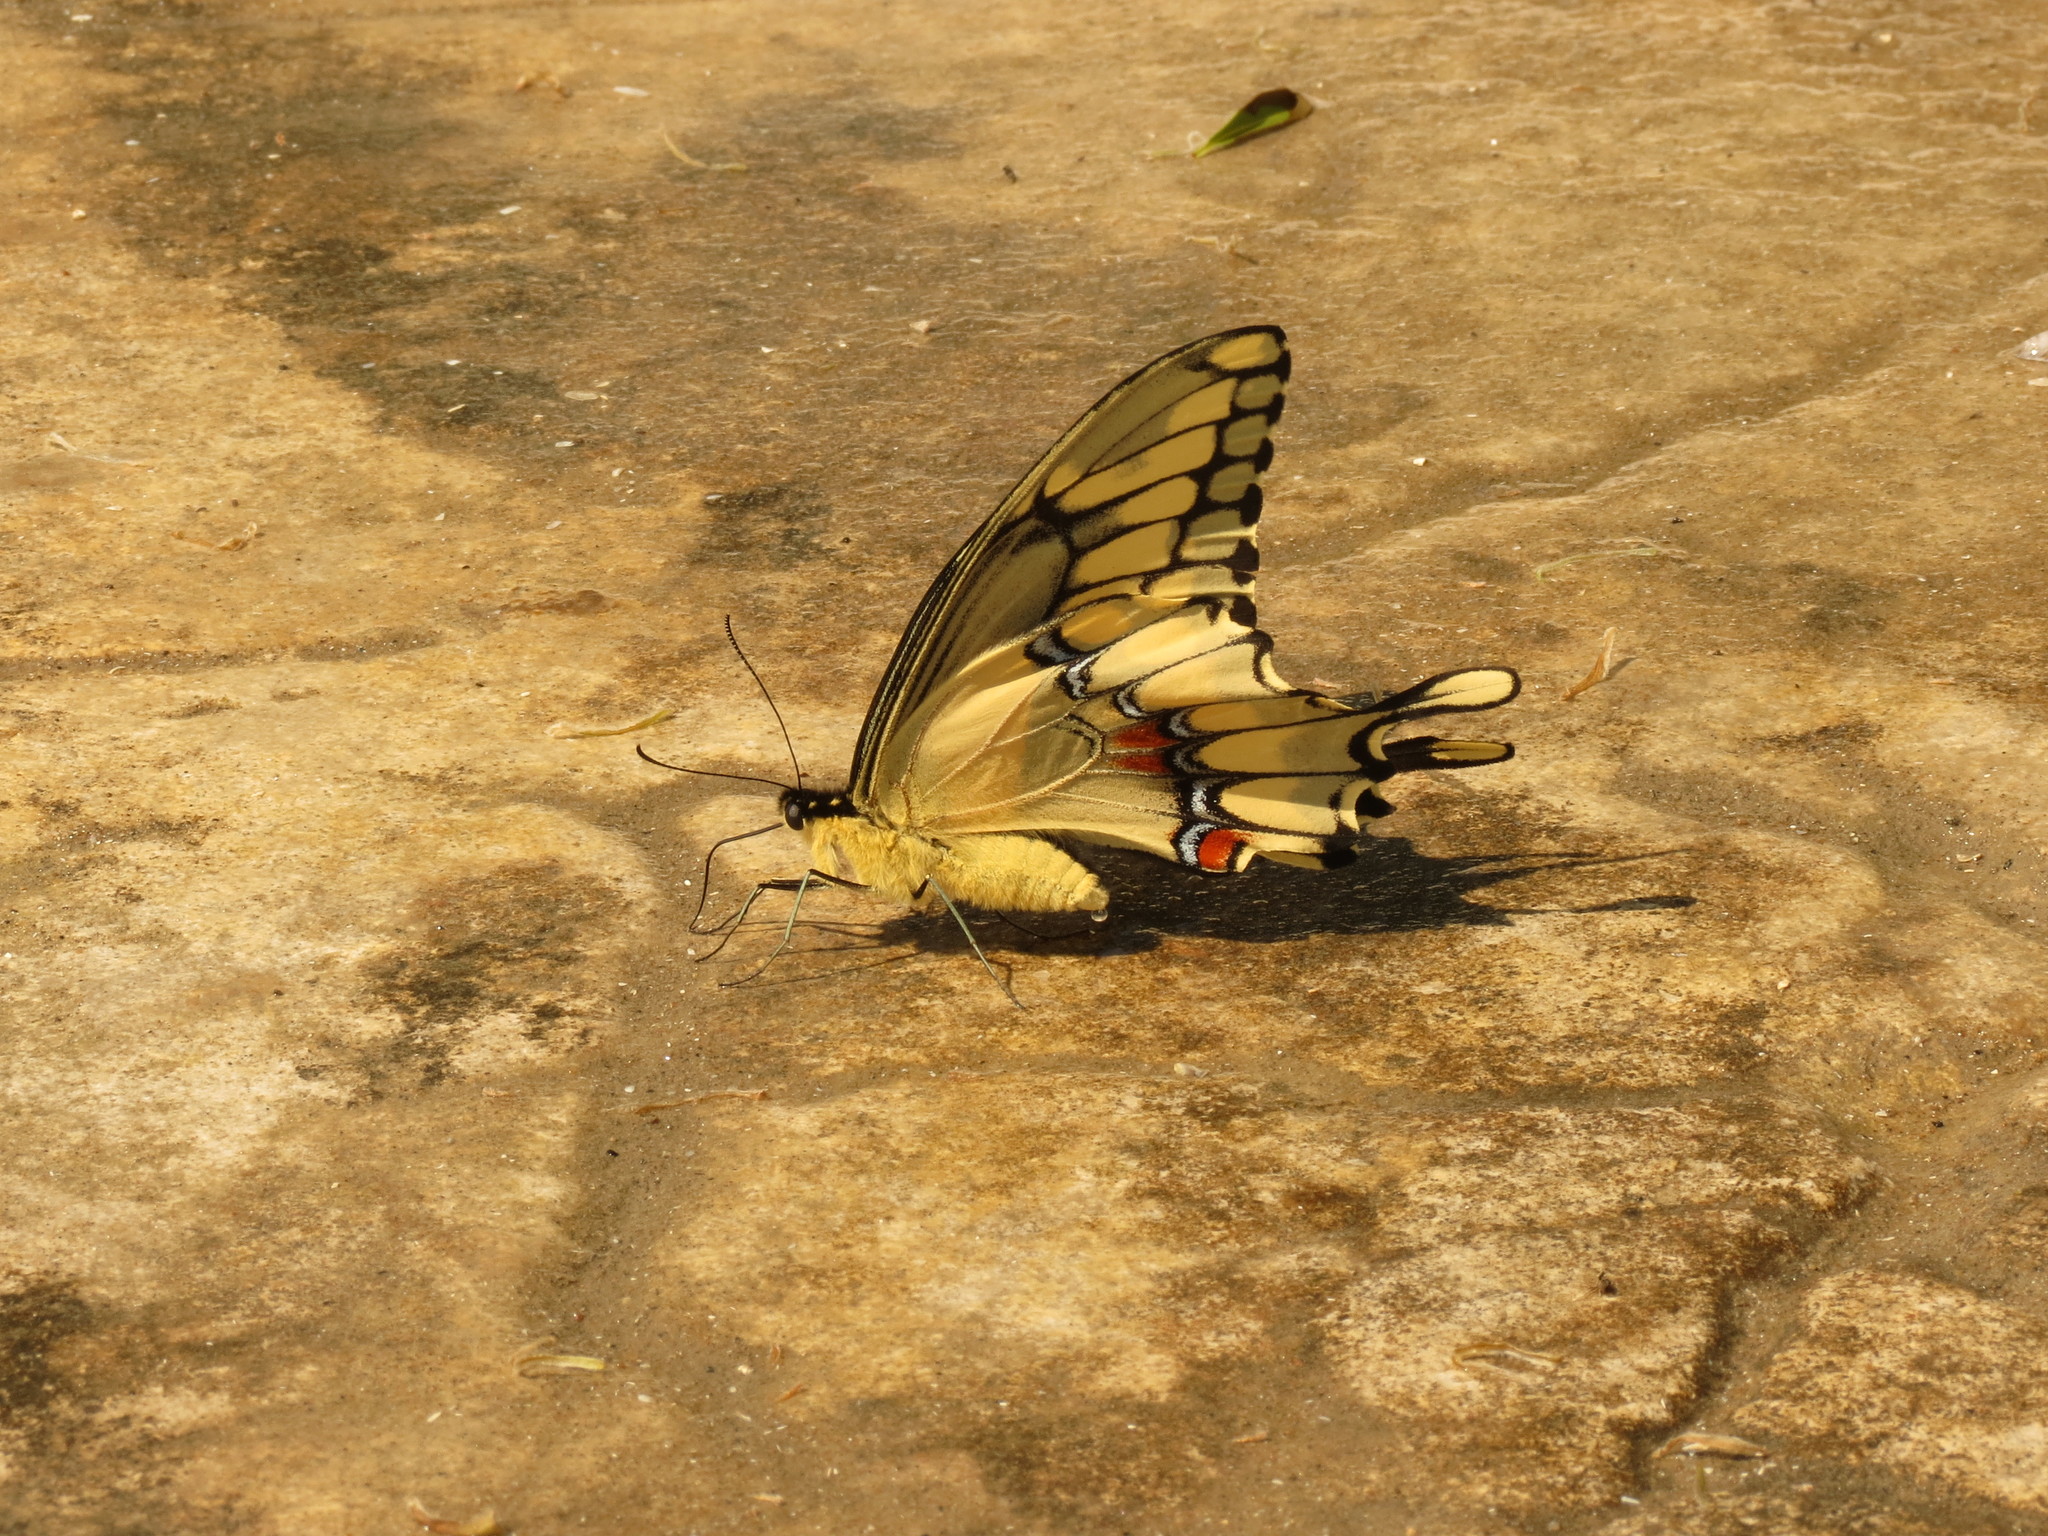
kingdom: Animalia
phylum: Arthropoda
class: Insecta
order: Lepidoptera
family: Papilionidae
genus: Papilio
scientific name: Papilio cresphontes
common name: Giant swallowtail
